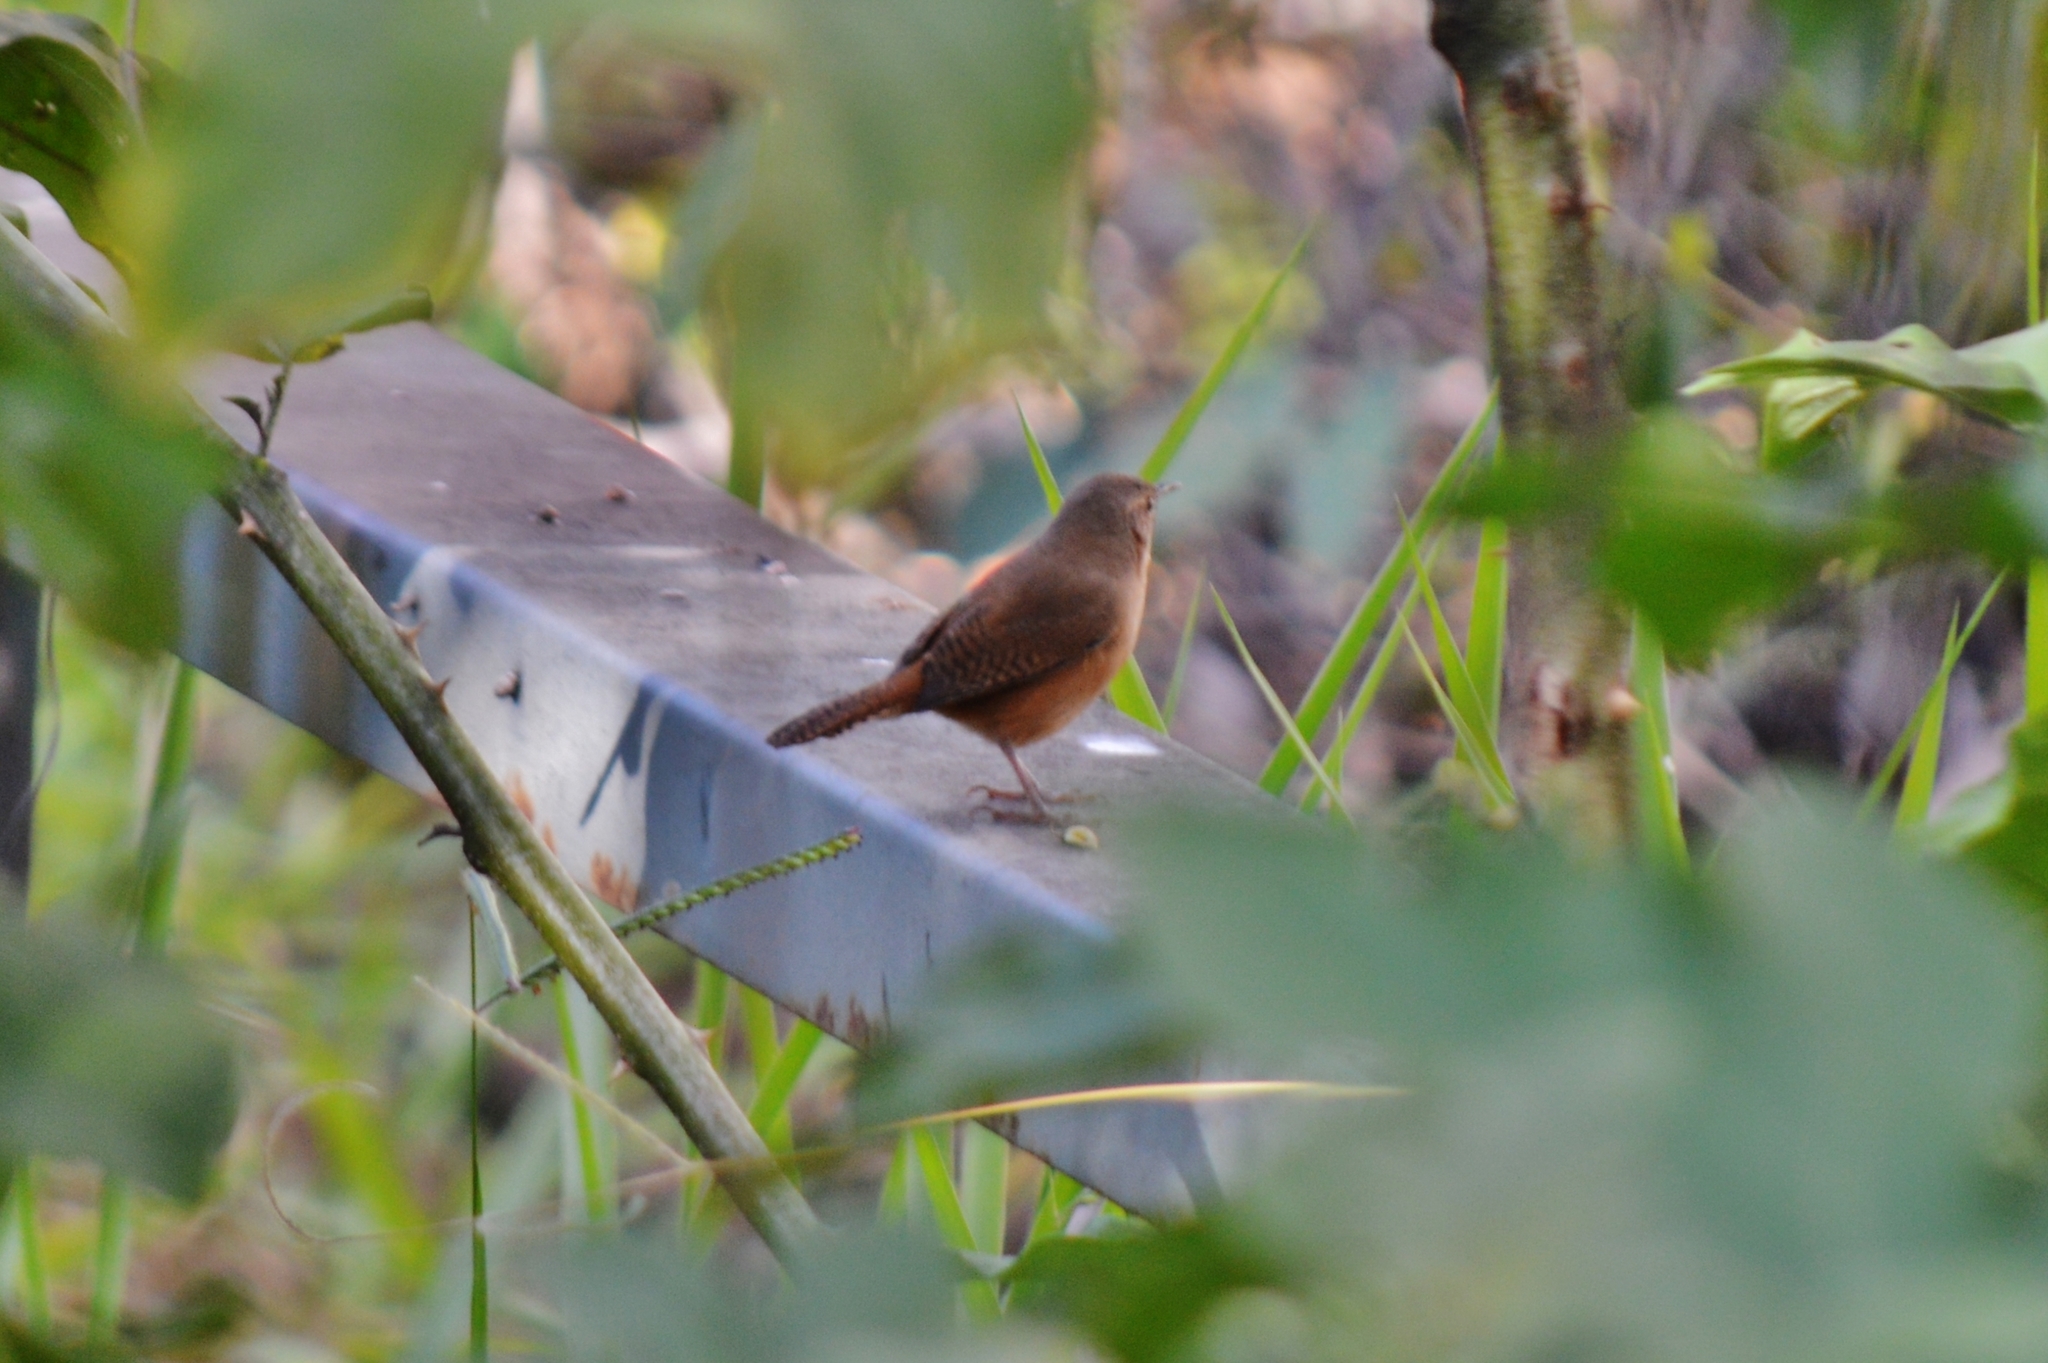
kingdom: Animalia
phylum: Chordata
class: Aves
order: Passeriformes
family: Troglodytidae
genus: Troglodytes
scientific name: Troglodytes aedon
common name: House wren
